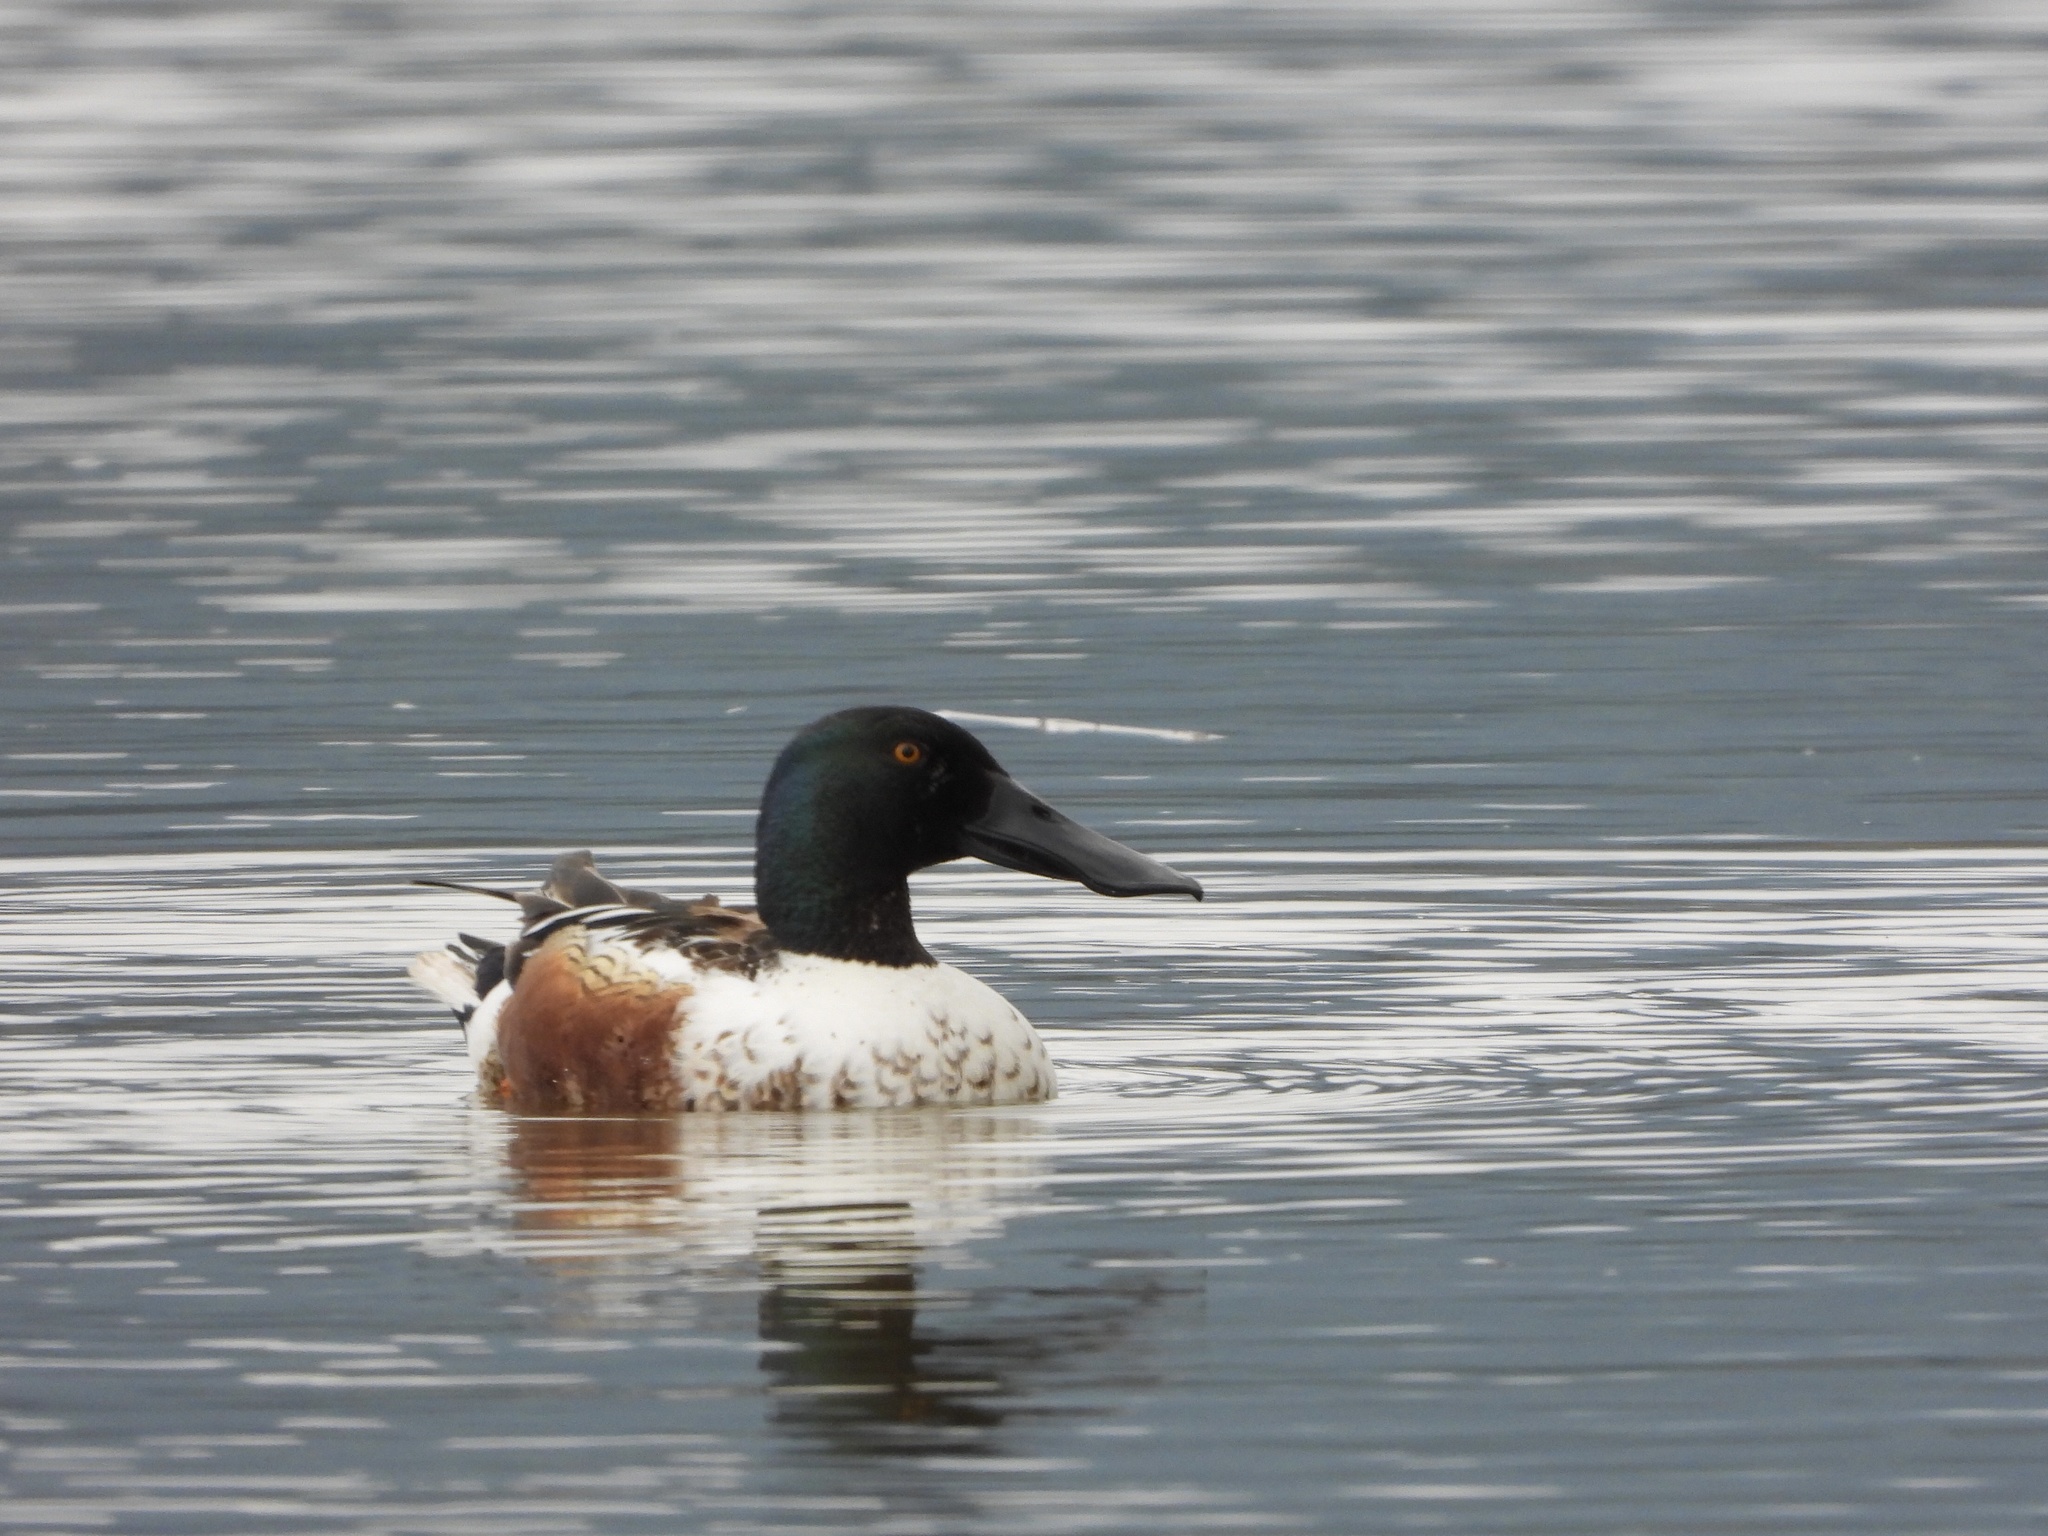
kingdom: Animalia
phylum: Chordata
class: Aves
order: Anseriformes
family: Anatidae
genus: Spatula
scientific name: Spatula clypeata
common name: Northern shoveler
